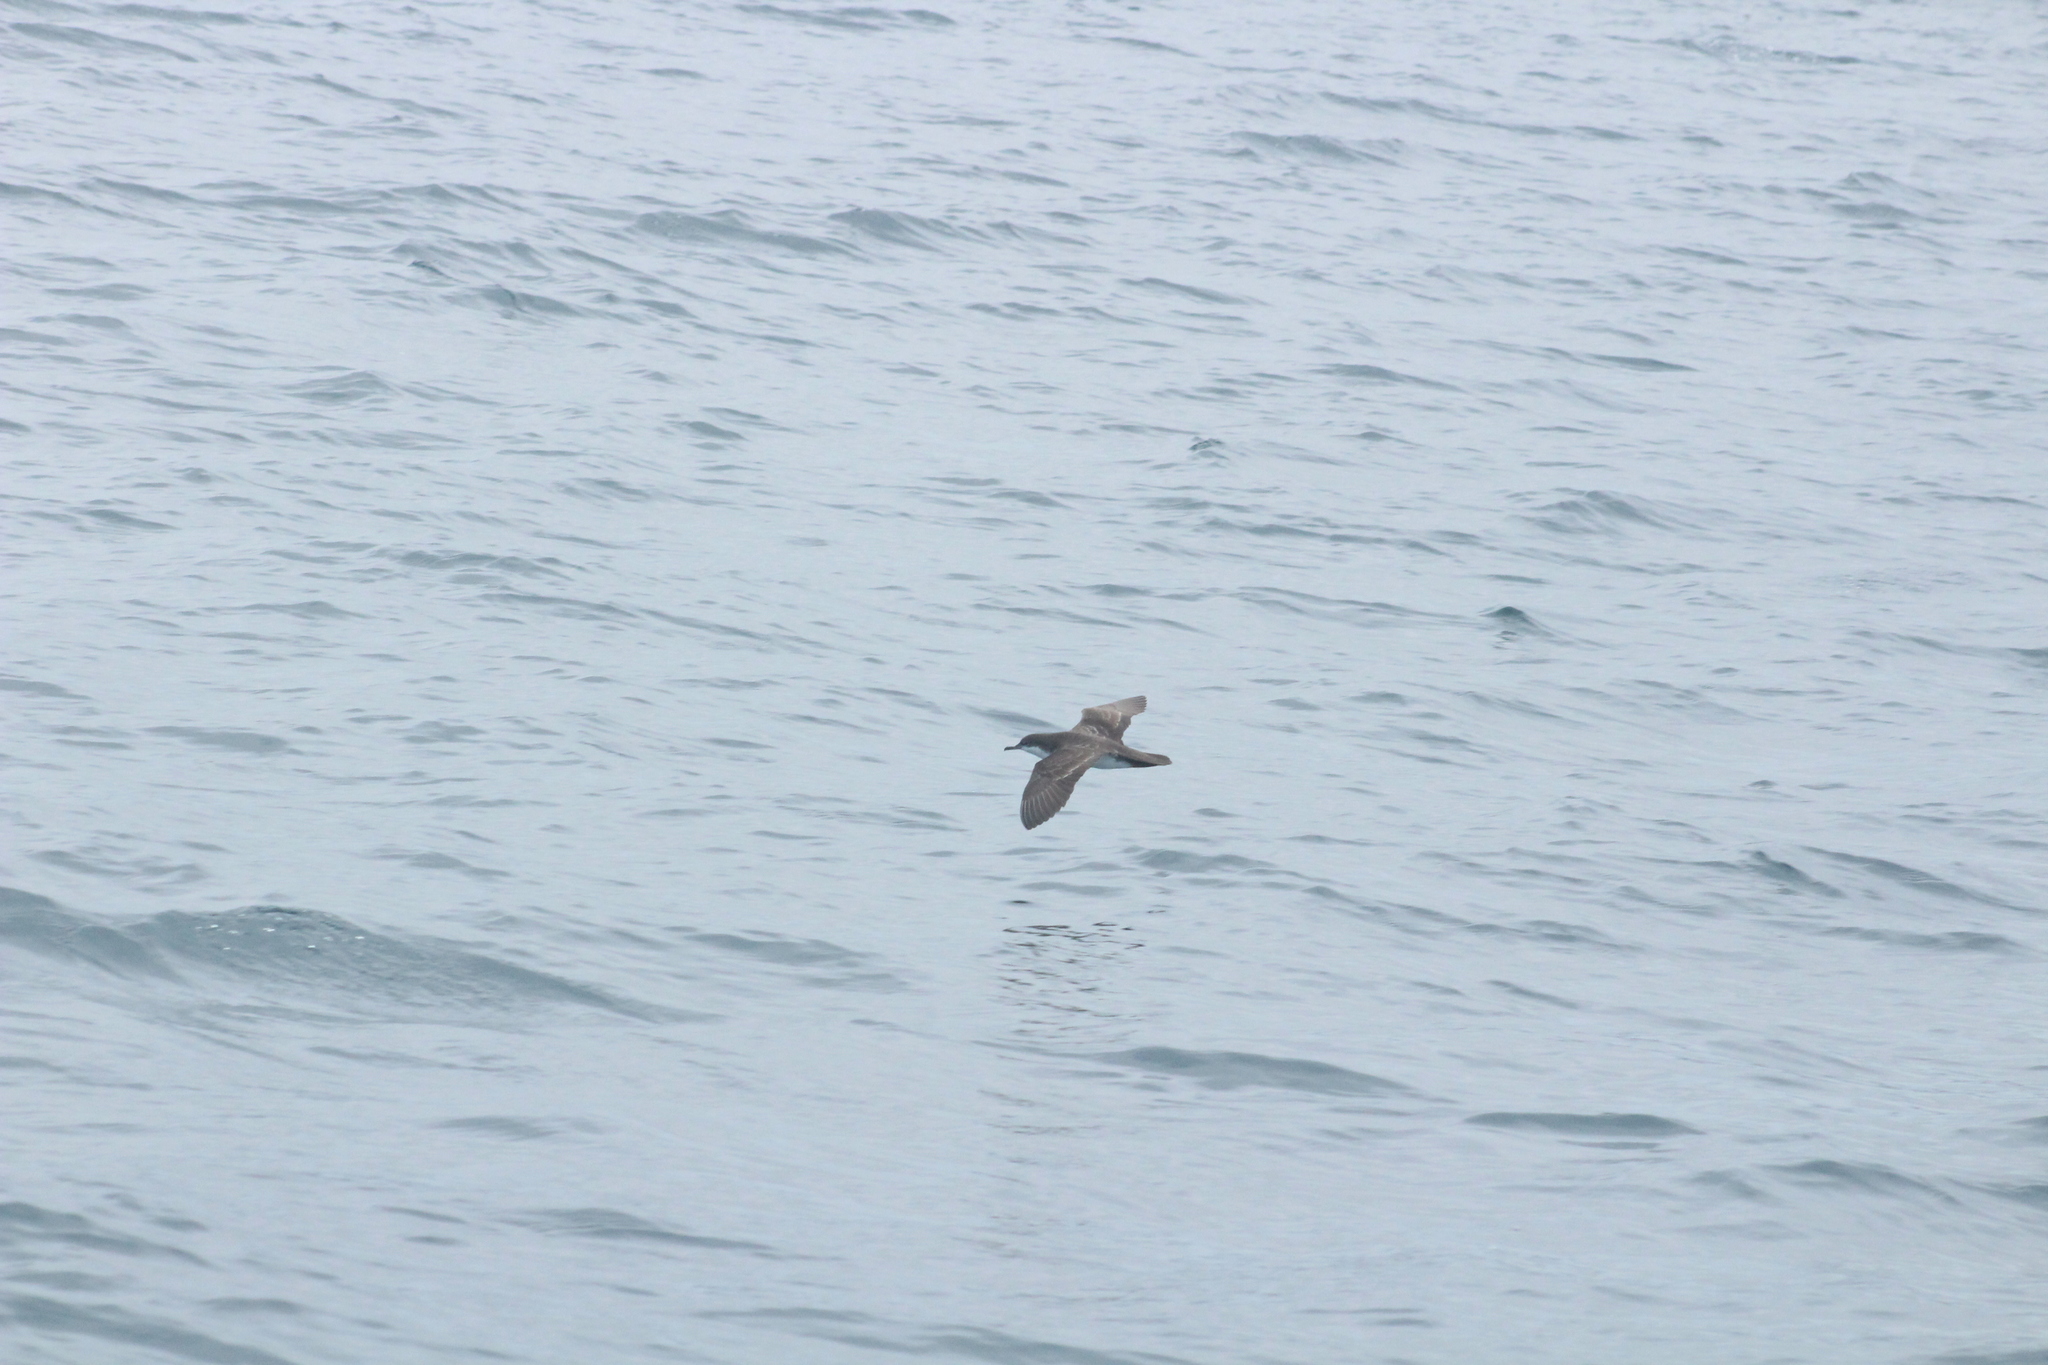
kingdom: Animalia
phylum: Chordata
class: Aves
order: Procellariiformes
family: Procellariidae
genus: Puffinus
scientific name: Puffinus subalaris
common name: Galapagos shearwater
